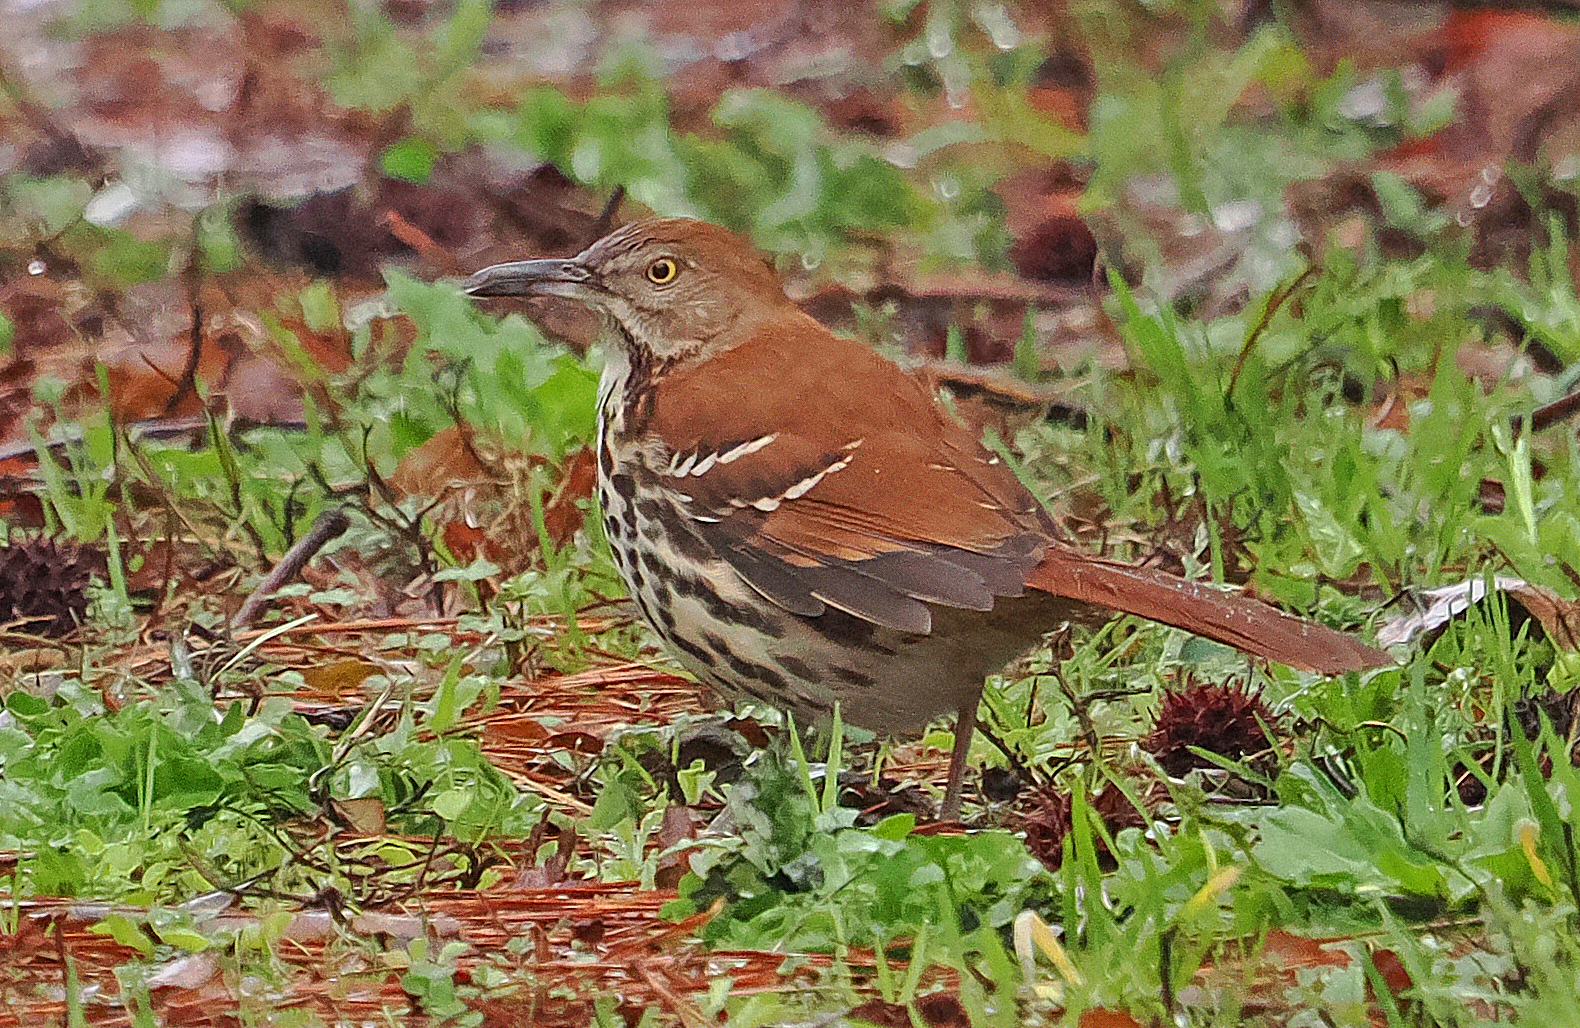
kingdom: Animalia
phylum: Chordata
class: Aves
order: Passeriformes
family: Mimidae
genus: Toxostoma
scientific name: Toxostoma rufum
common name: Brown thrasher
